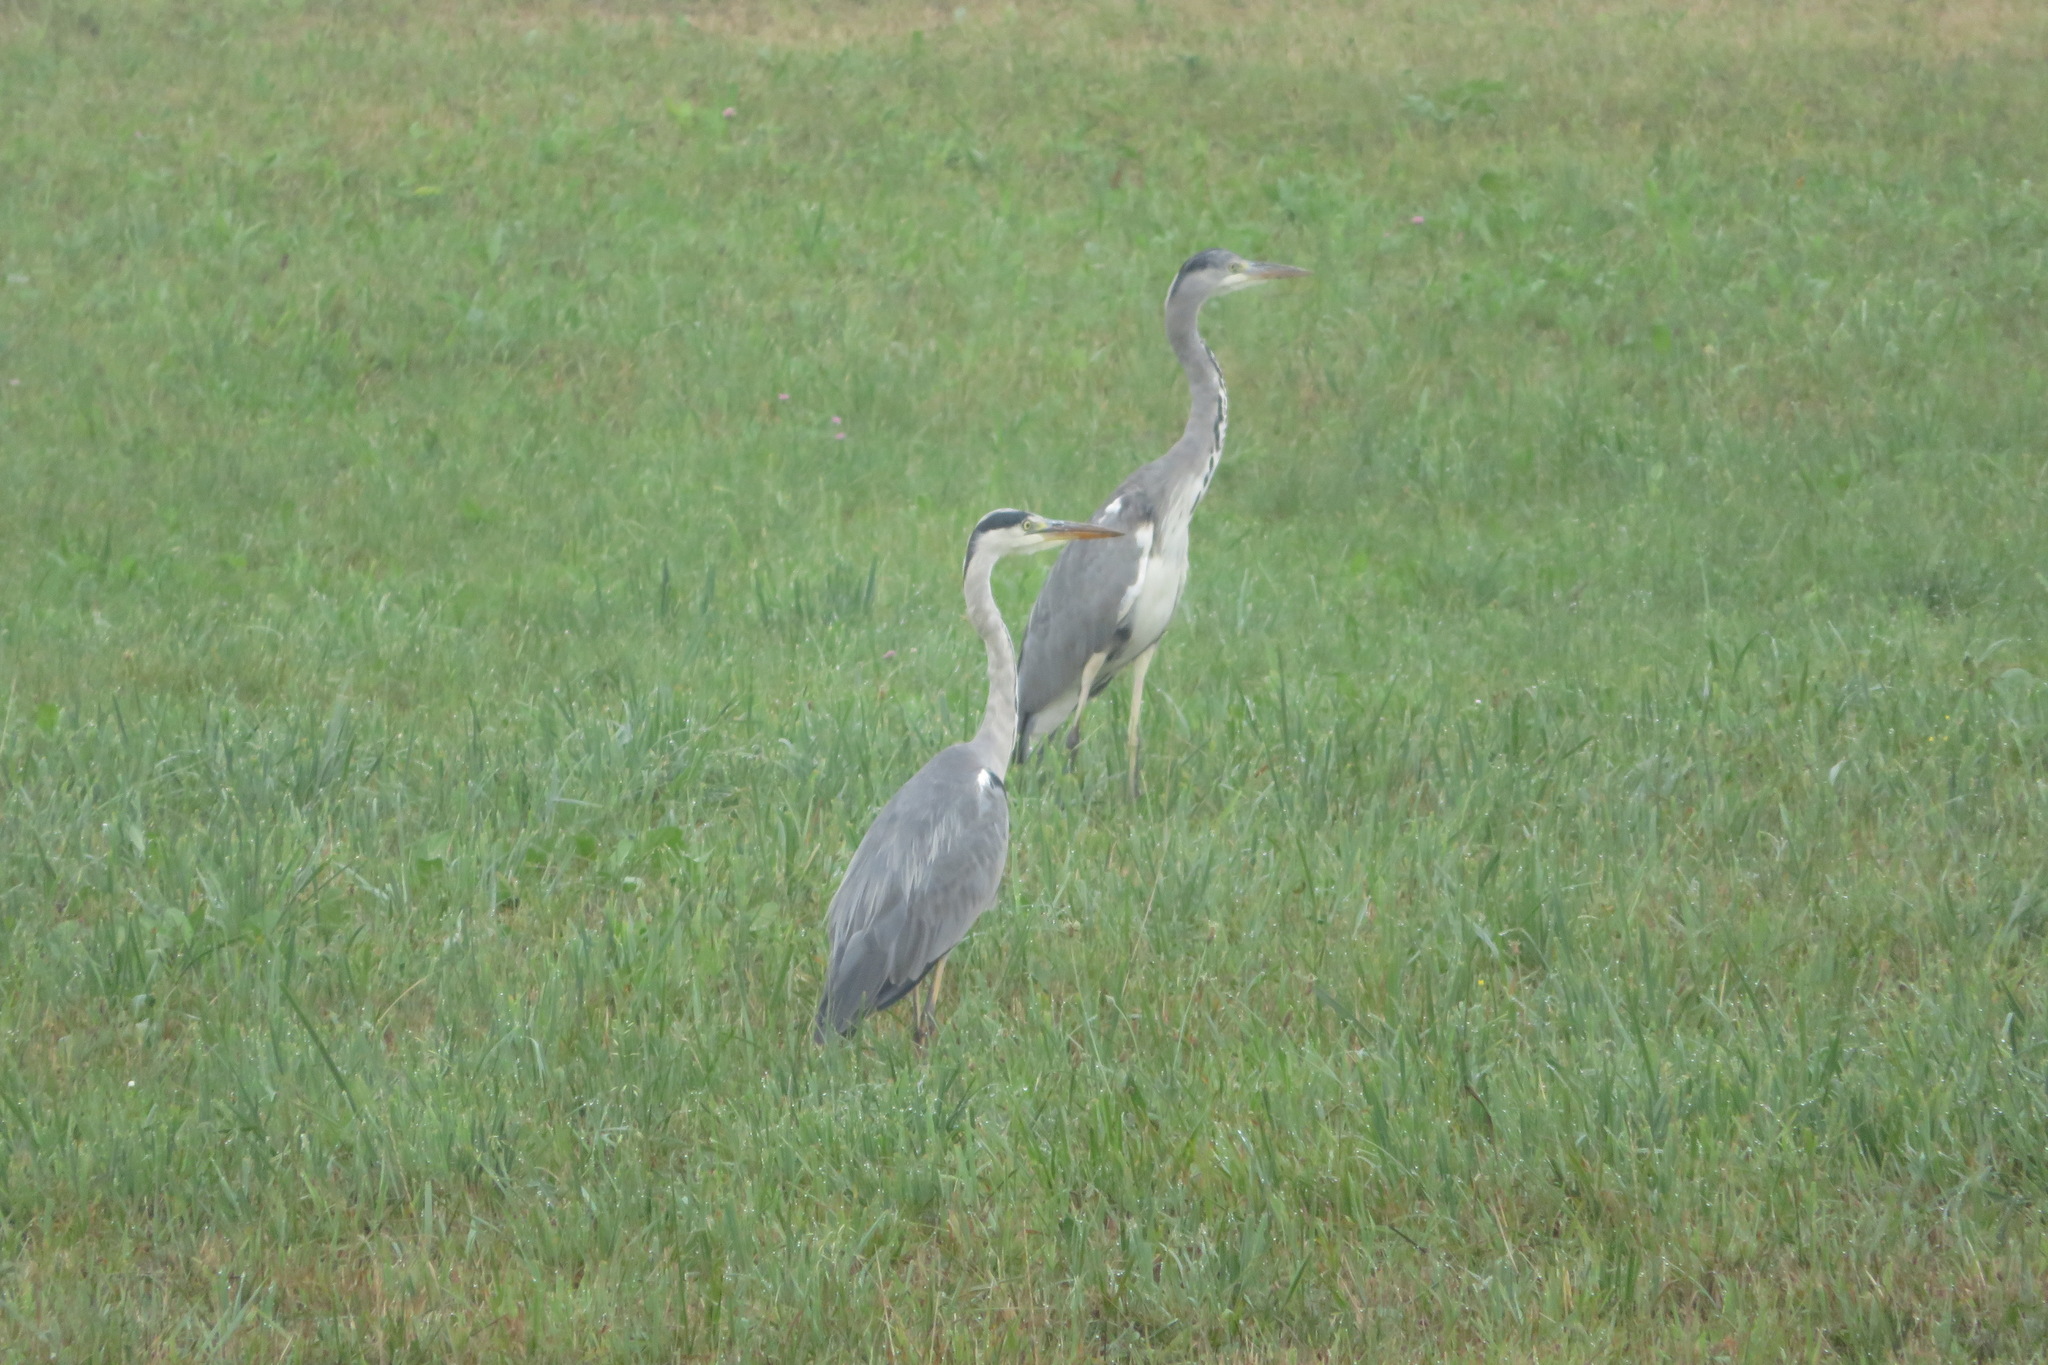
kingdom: Animalia
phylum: Chordata
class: Aves
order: Pelecaniformes
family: Ardeidae
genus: Ardea
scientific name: Ardea cinerea
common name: Grey heron
